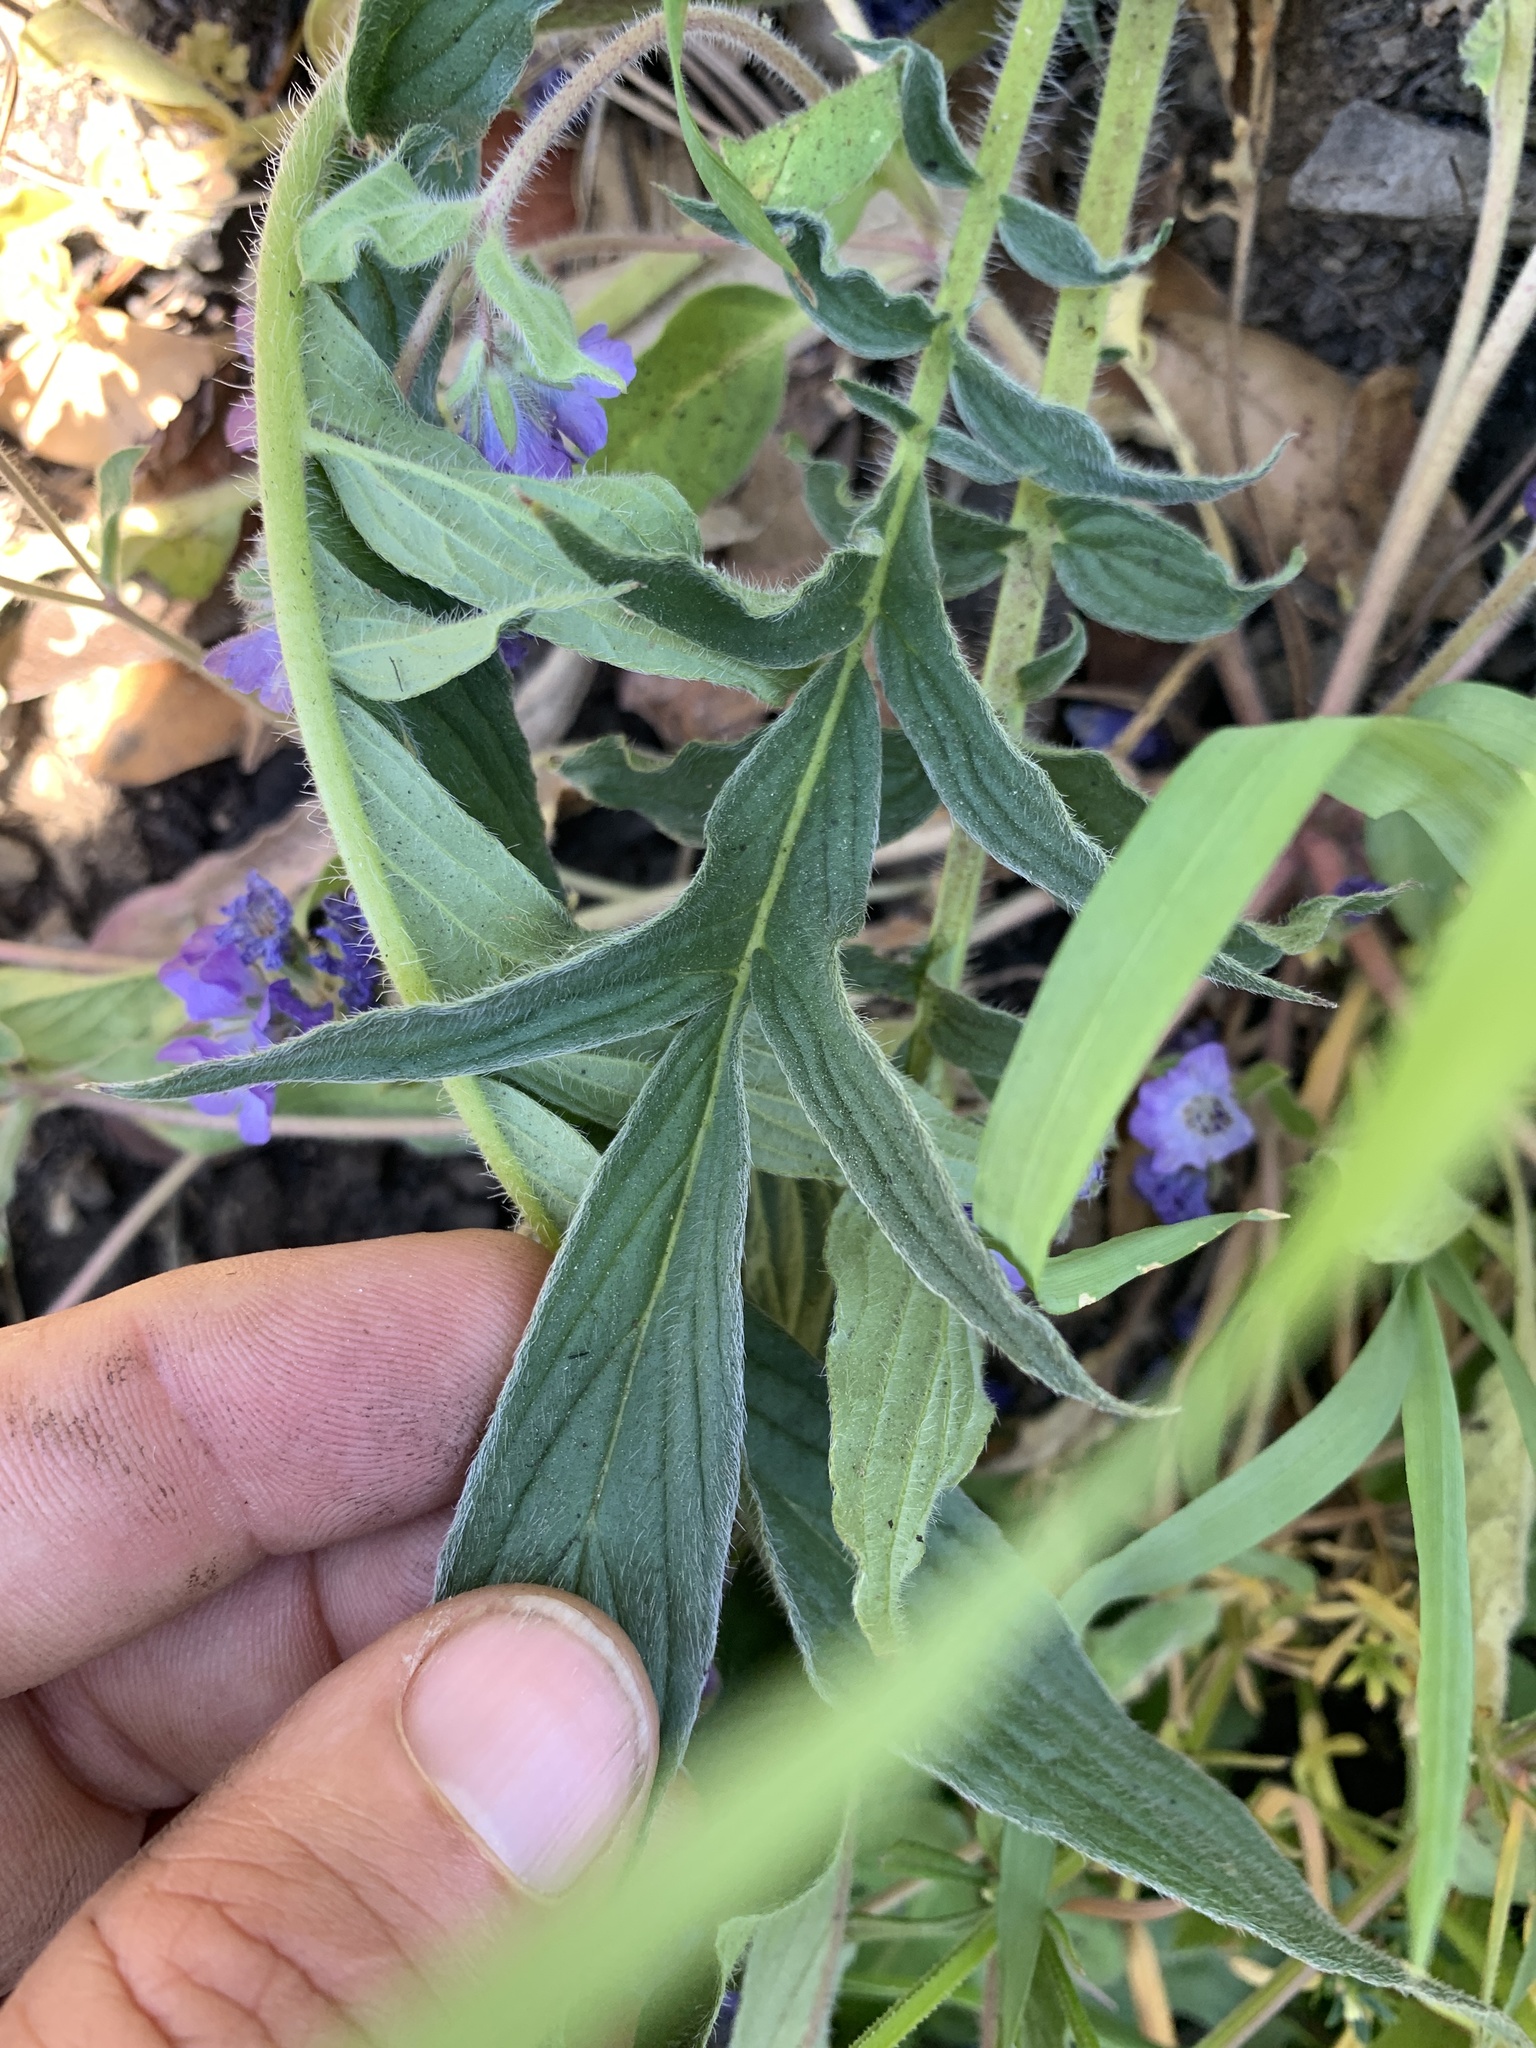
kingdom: Plantae
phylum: Tracheophyta
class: Magnoliopsida
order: Boraginales
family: Hydrophyllaceae
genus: Phacelia
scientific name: Phacelia divaricata
